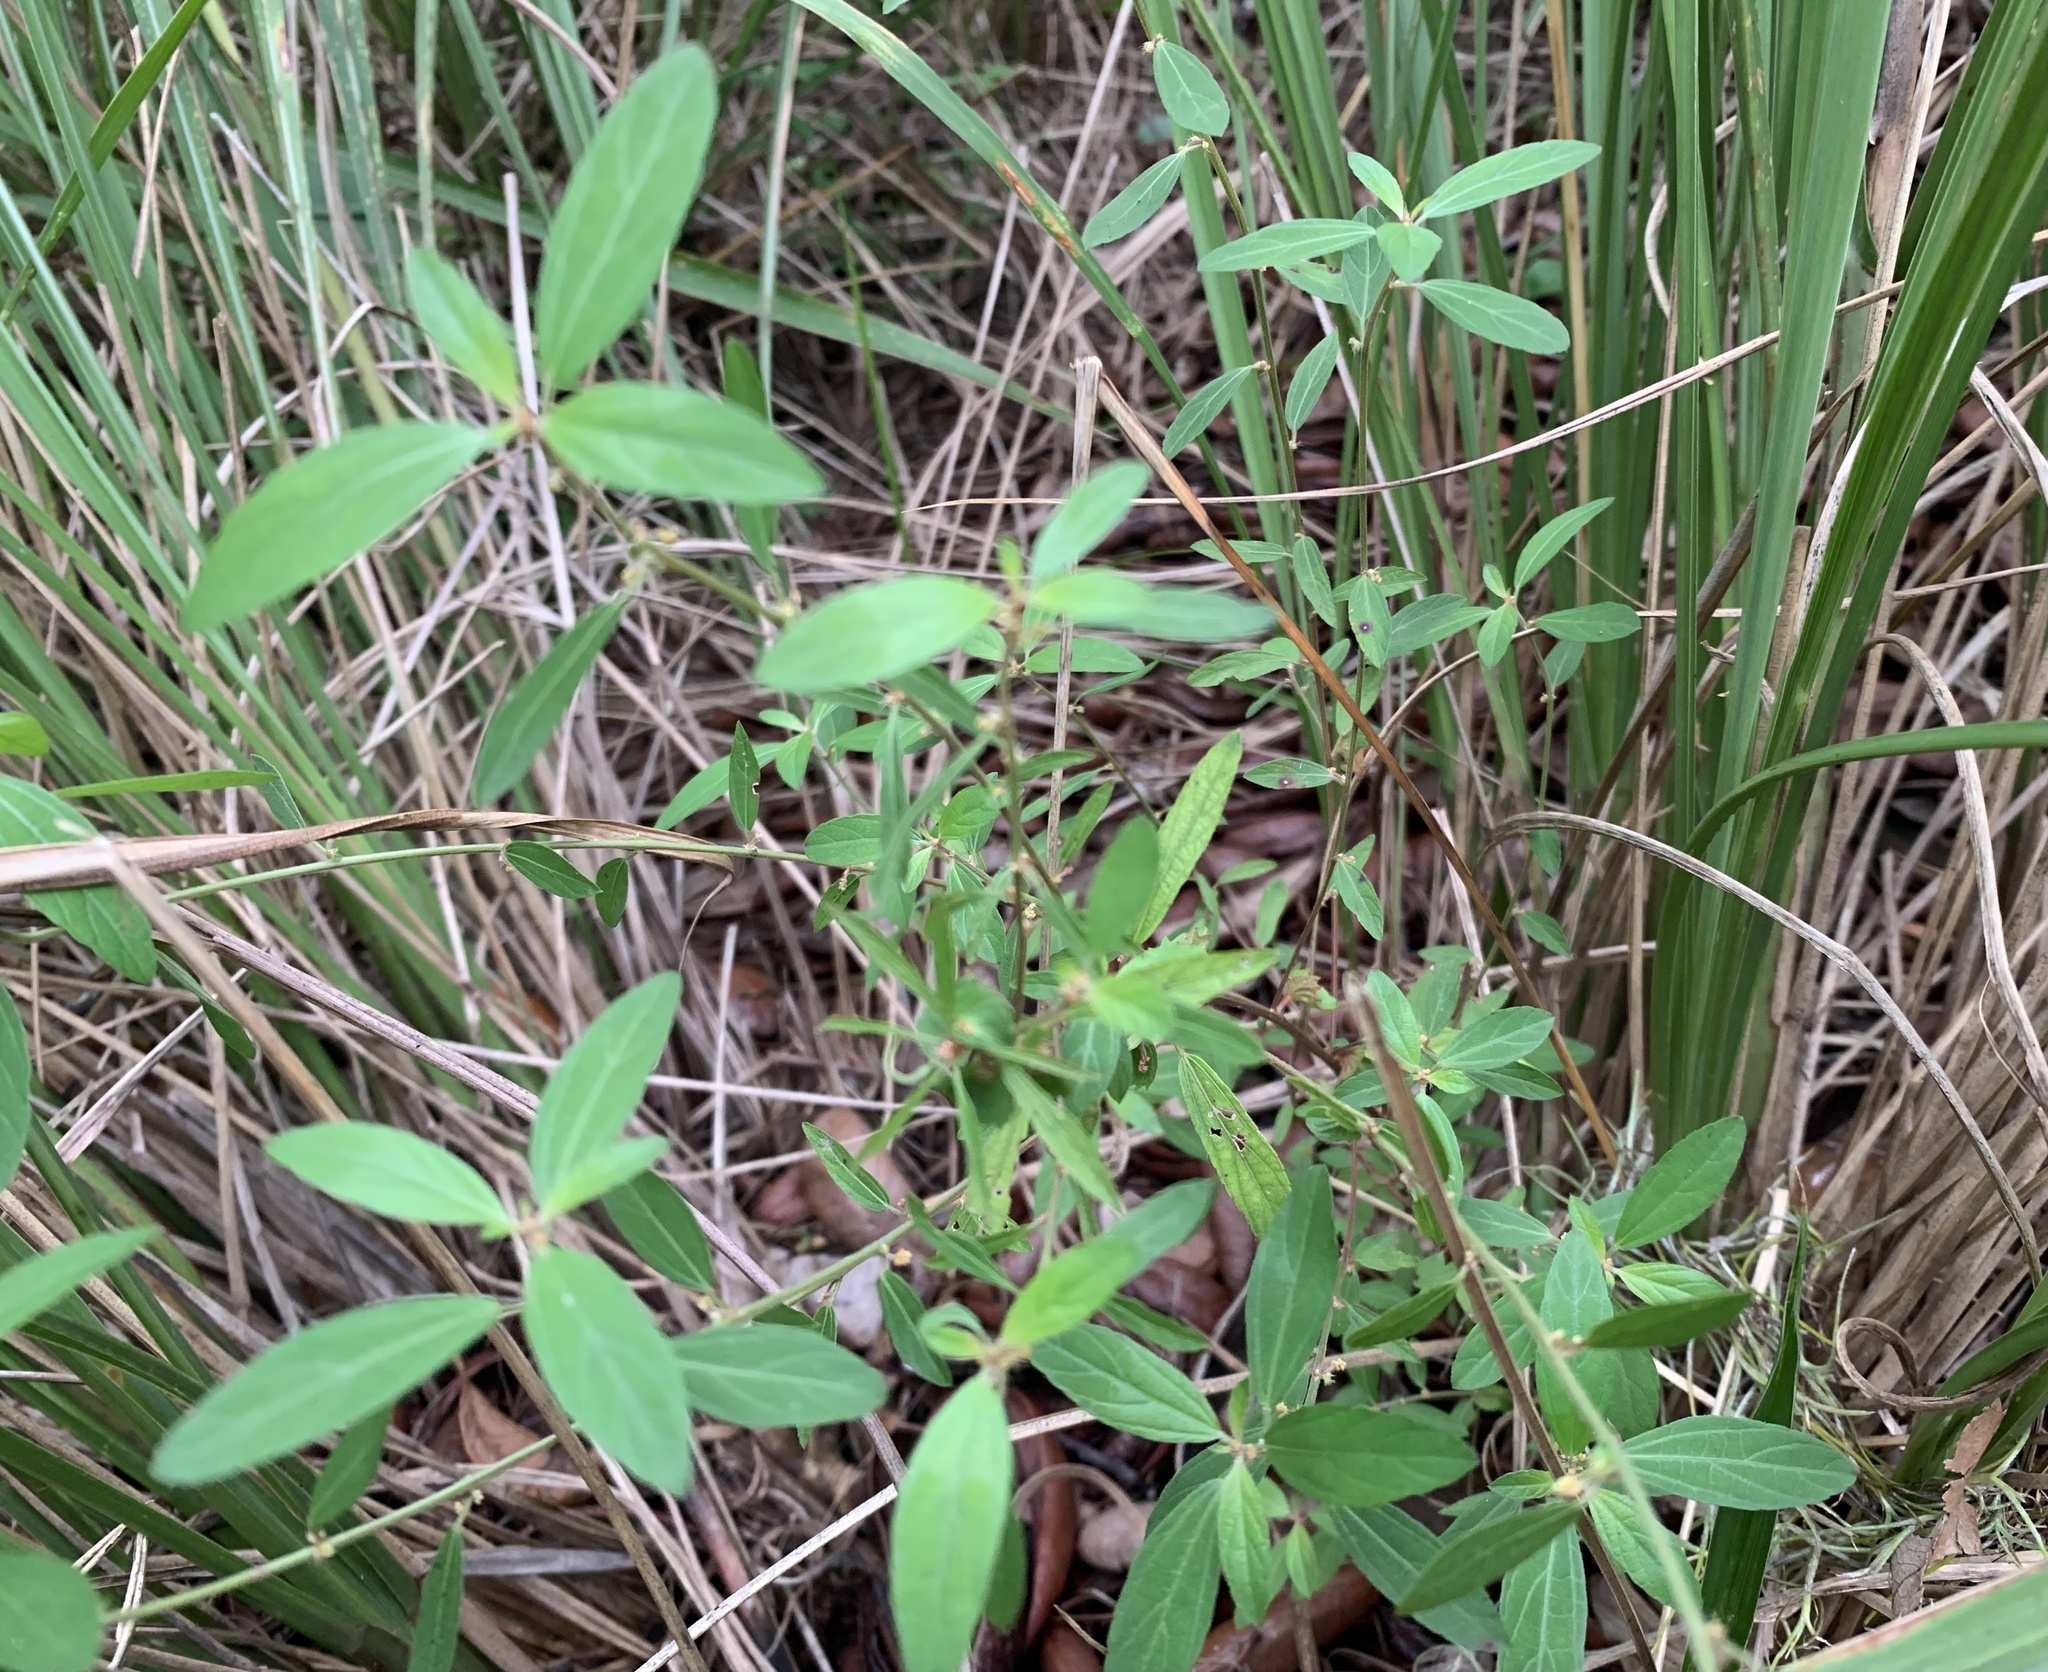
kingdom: Plantae
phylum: Tracheophyta
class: Magnoliopsida
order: Malpighiales
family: Euphorbiaceae
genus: Acalypha
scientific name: Acalypha gracilens
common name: Slender three-seeded mercury
